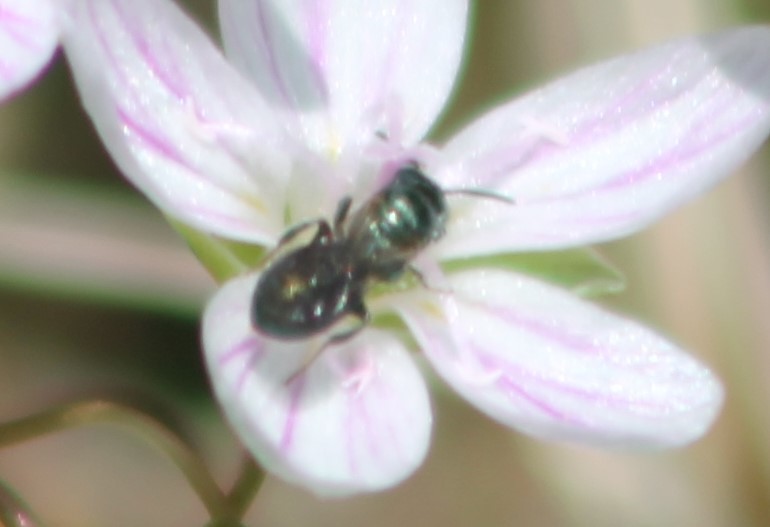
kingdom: Animalia
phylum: Arthropoda
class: Insecta
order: Hymenoptera
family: Apidae
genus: Zadontomerus
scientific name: Zadontomerus
